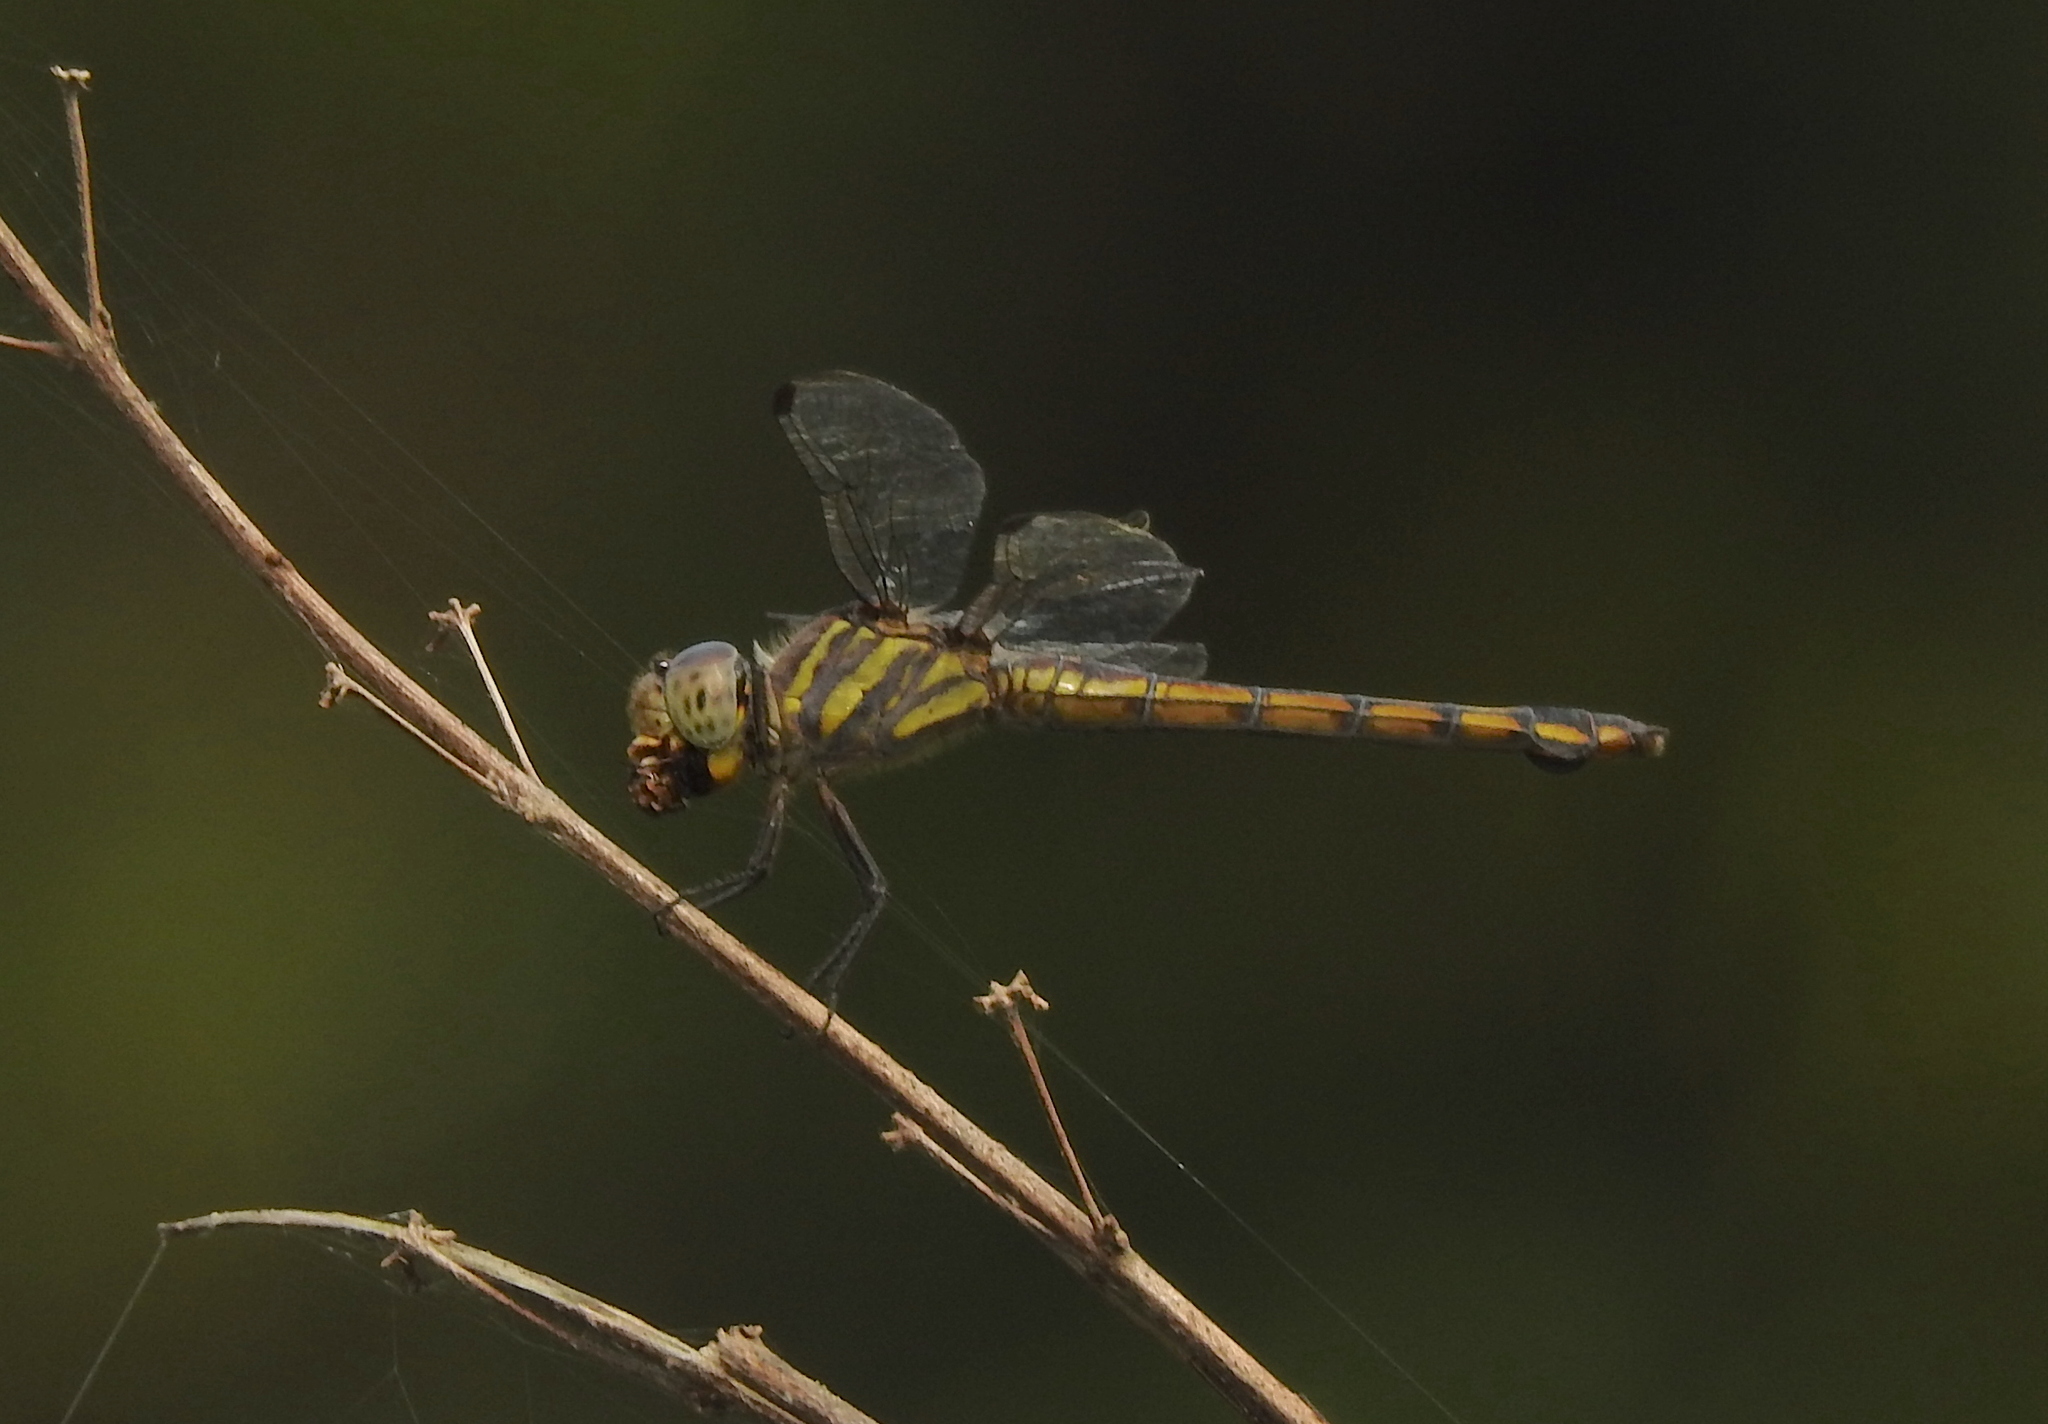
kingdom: Animalia
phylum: Arthropoda
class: Insecta
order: Odonata
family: Libellulidae
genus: Potamarcha
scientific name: Potamarcha congener
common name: Blue chaser
